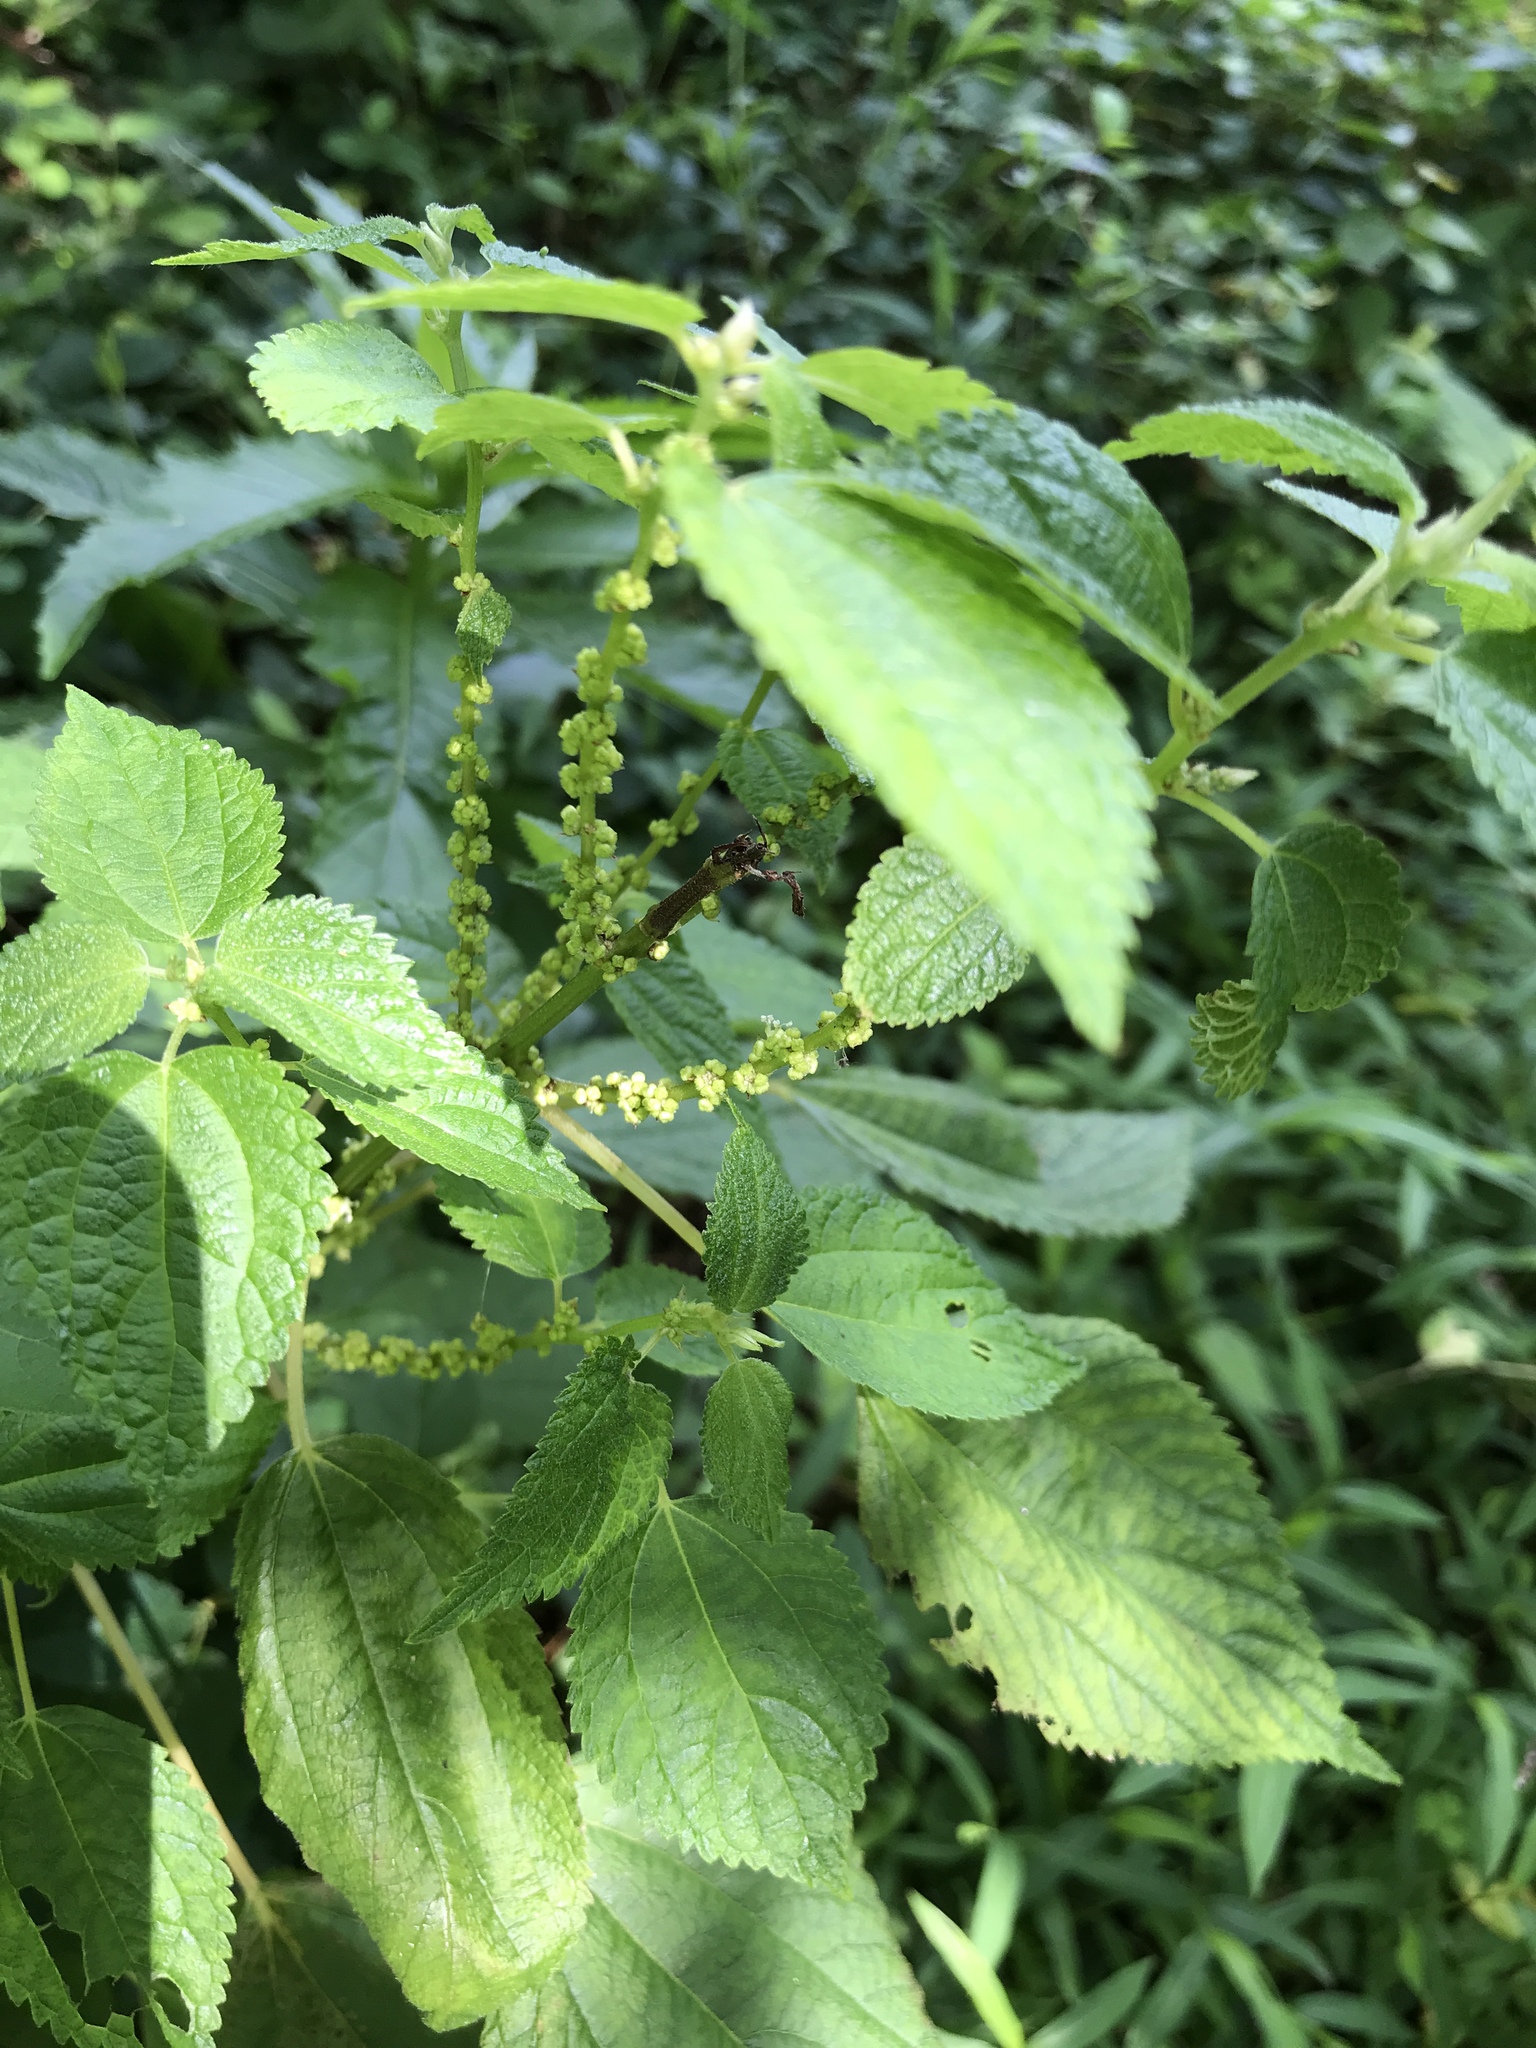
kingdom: Plantae
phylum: Tracheophyta
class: Magnoliopsida
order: Rosales
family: Urticaceae
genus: Boehmeria
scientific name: Boehmeria cylindrica
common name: Bog-hemp
